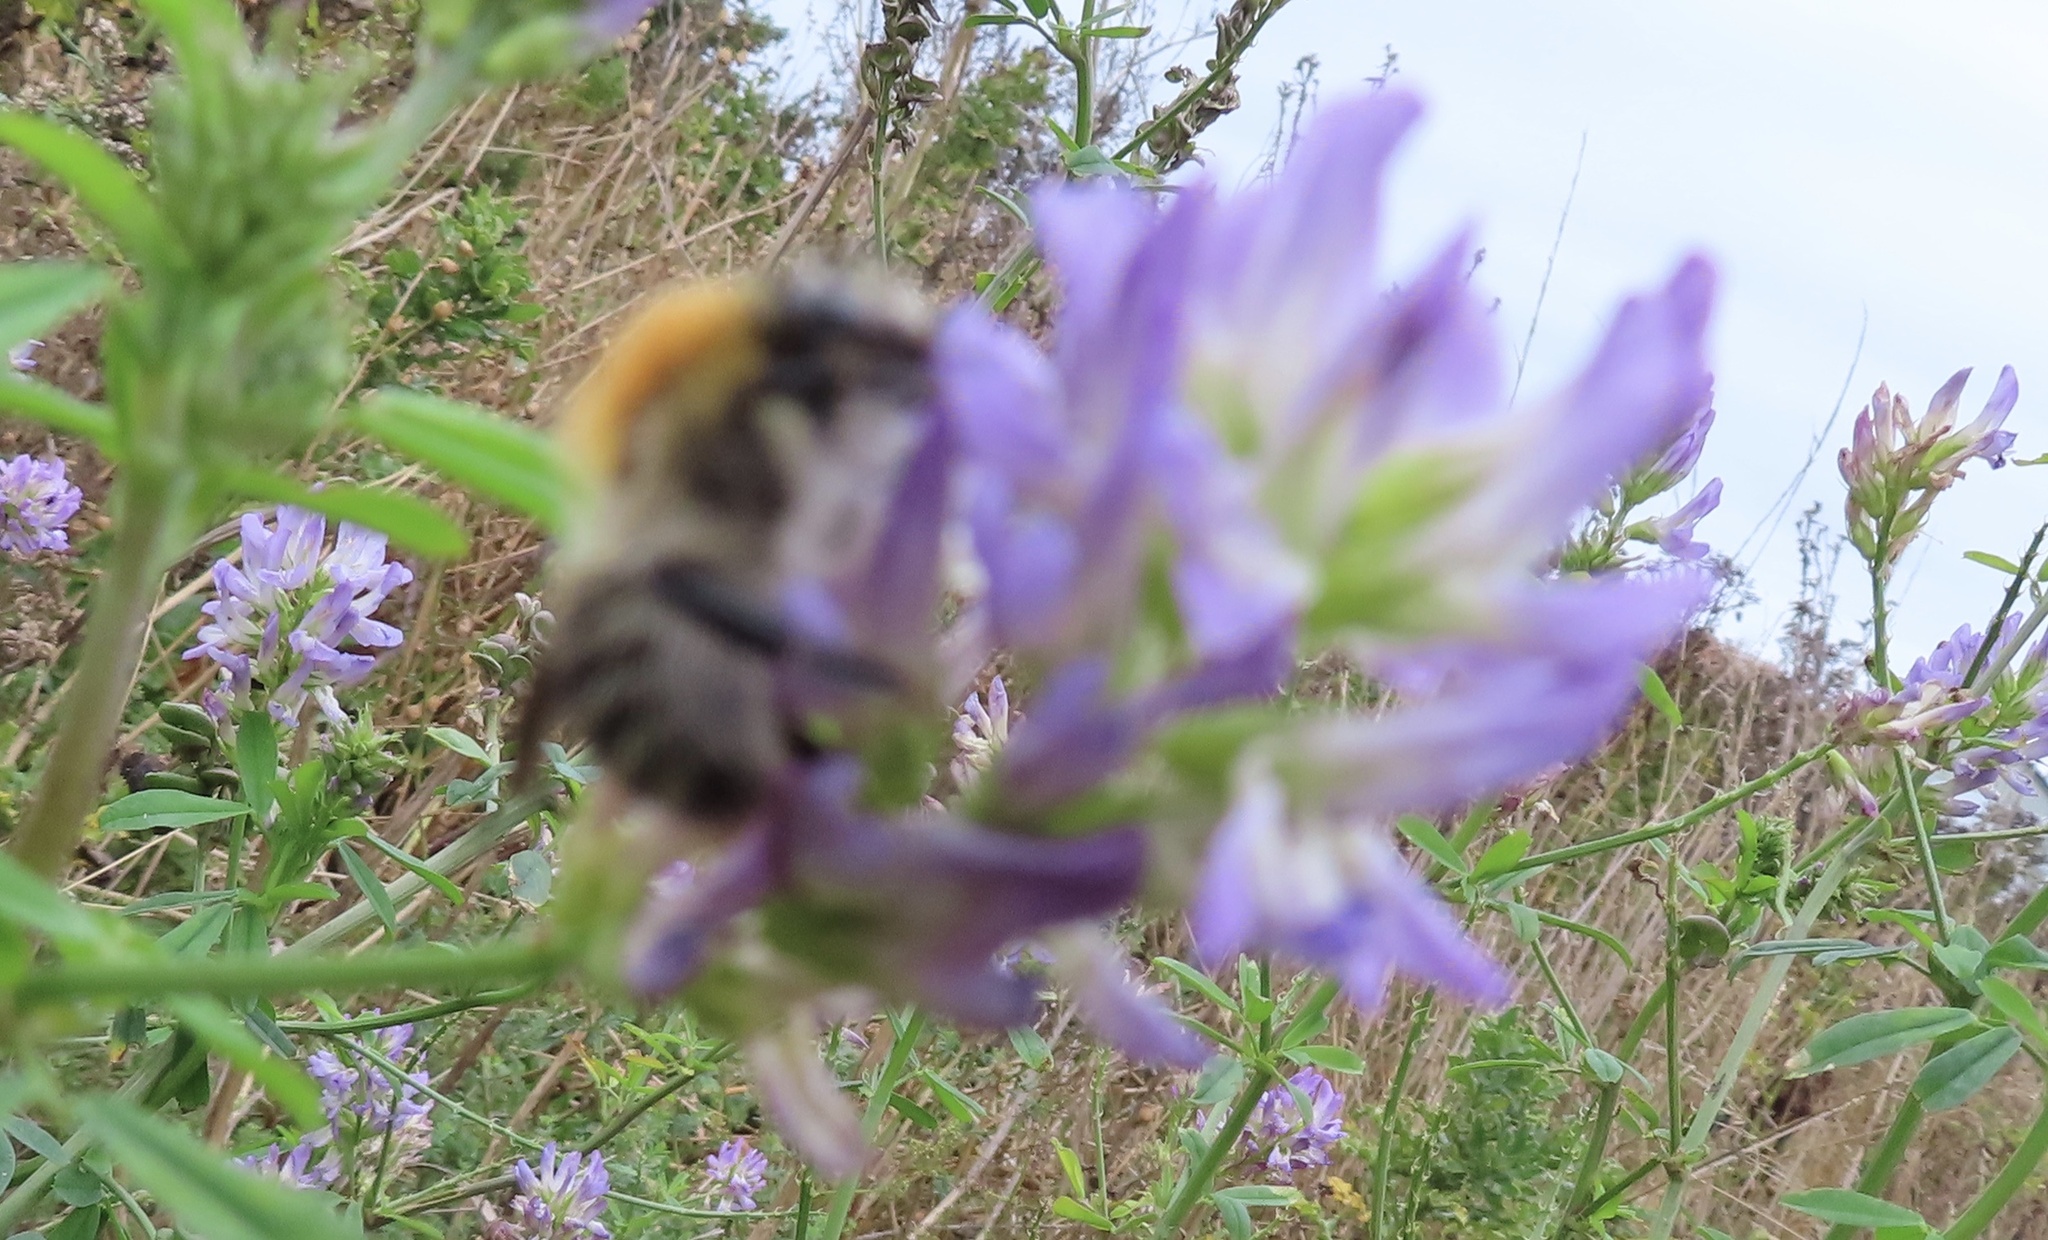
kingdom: Animalia
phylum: Arthropoda
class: Insecta
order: Hymenoptera
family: Apidae
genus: Bombus
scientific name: Bombus pascuorum
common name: Common carder bee
